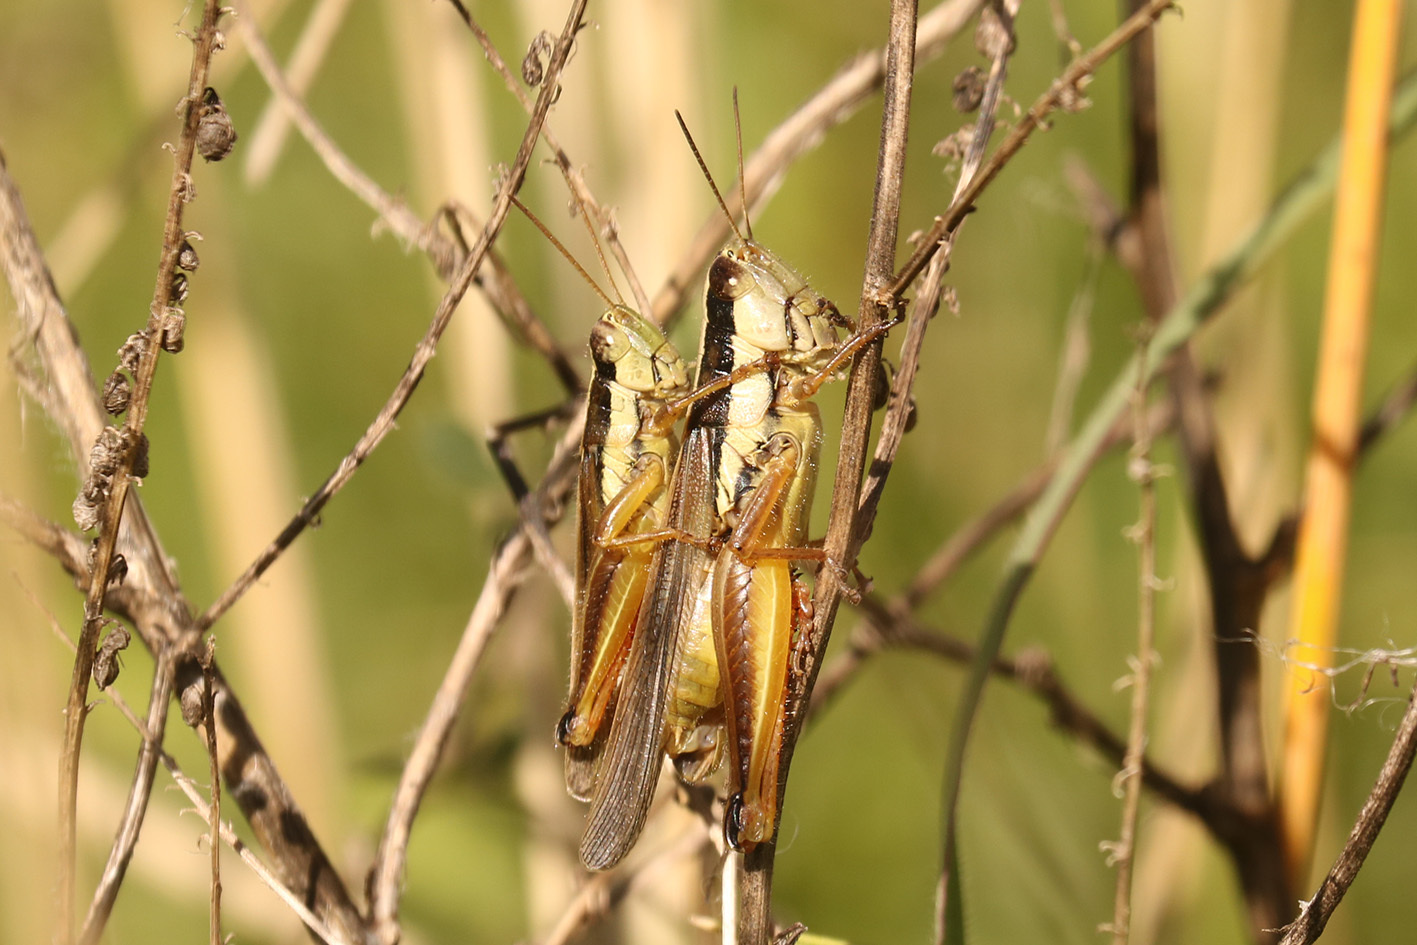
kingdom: Animalia
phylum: Arthropoda
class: Insecta
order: Orthoptera
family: Acrididae
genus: Scotussa
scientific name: Scotussa lemniscata
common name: Slender orange-legged grasshopper
